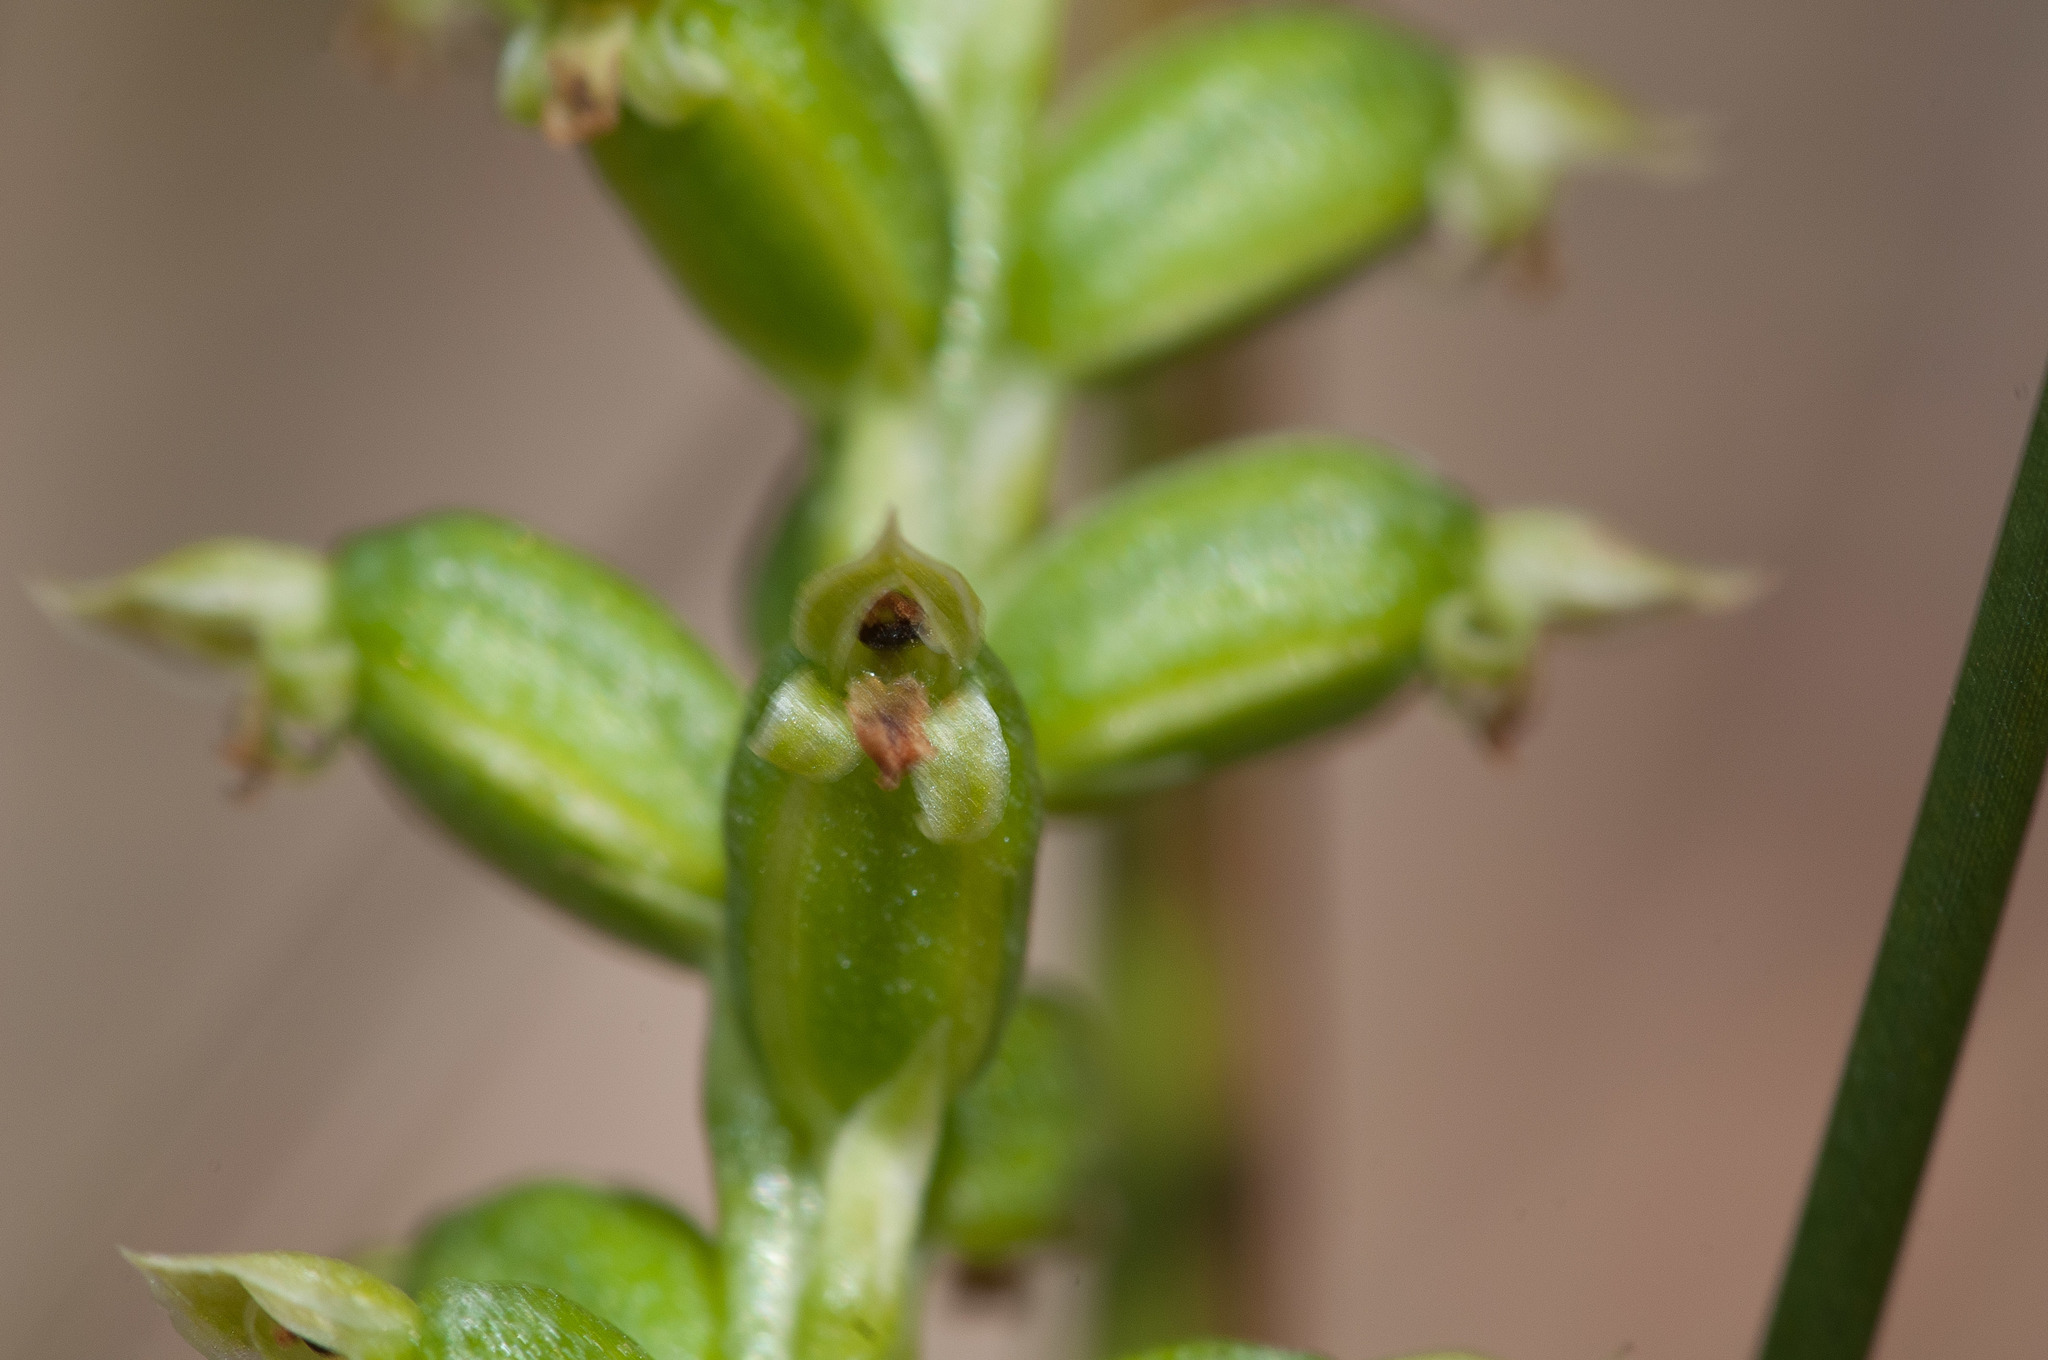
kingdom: Plantae
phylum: Tracheophyta
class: Liliopsida
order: Asparagales
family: Orchidaceae
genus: Microtis
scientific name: Microtis arenaria
